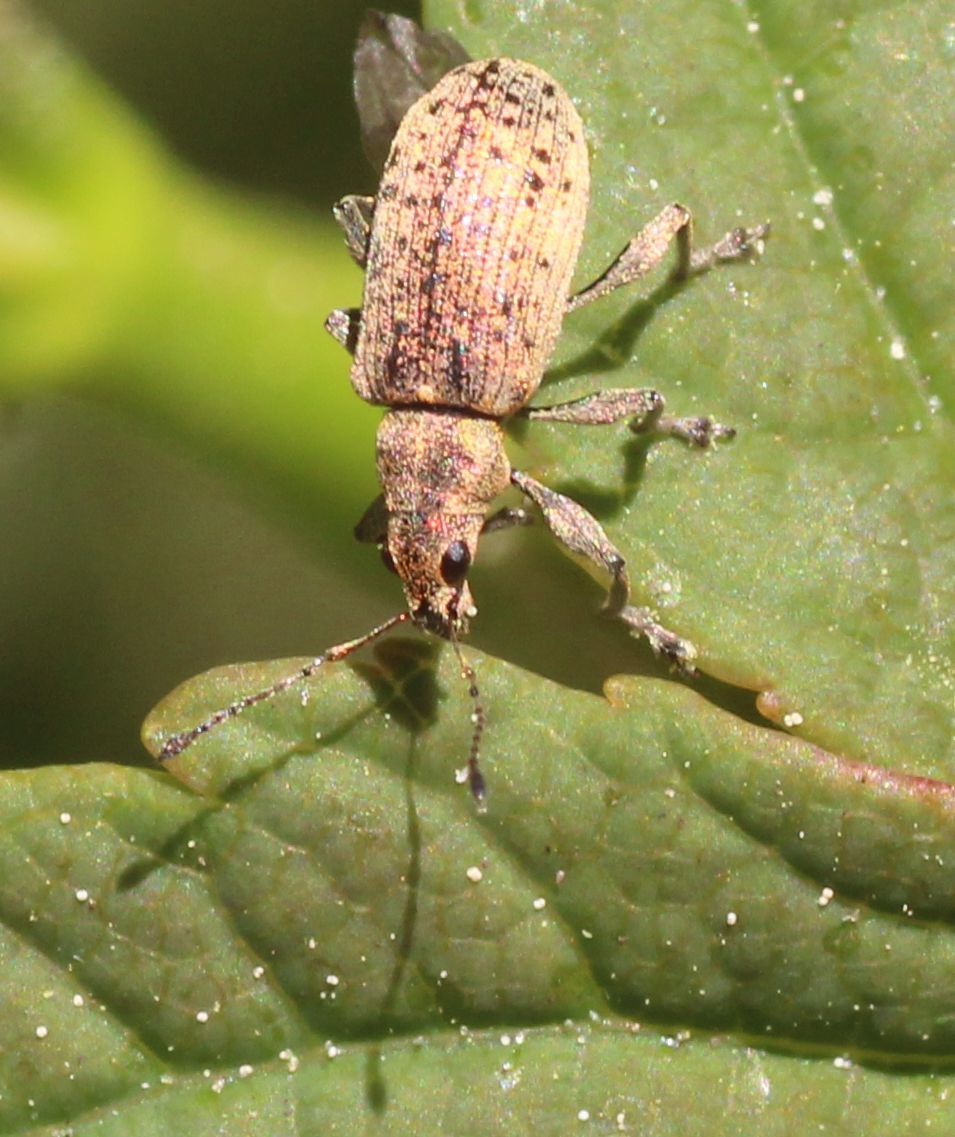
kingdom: Animalia
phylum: Arthropoda
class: Insecta
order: Coleoptera
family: Curculionidae
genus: Polydrusus
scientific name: Polydrusus cervinus
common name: Weevil
